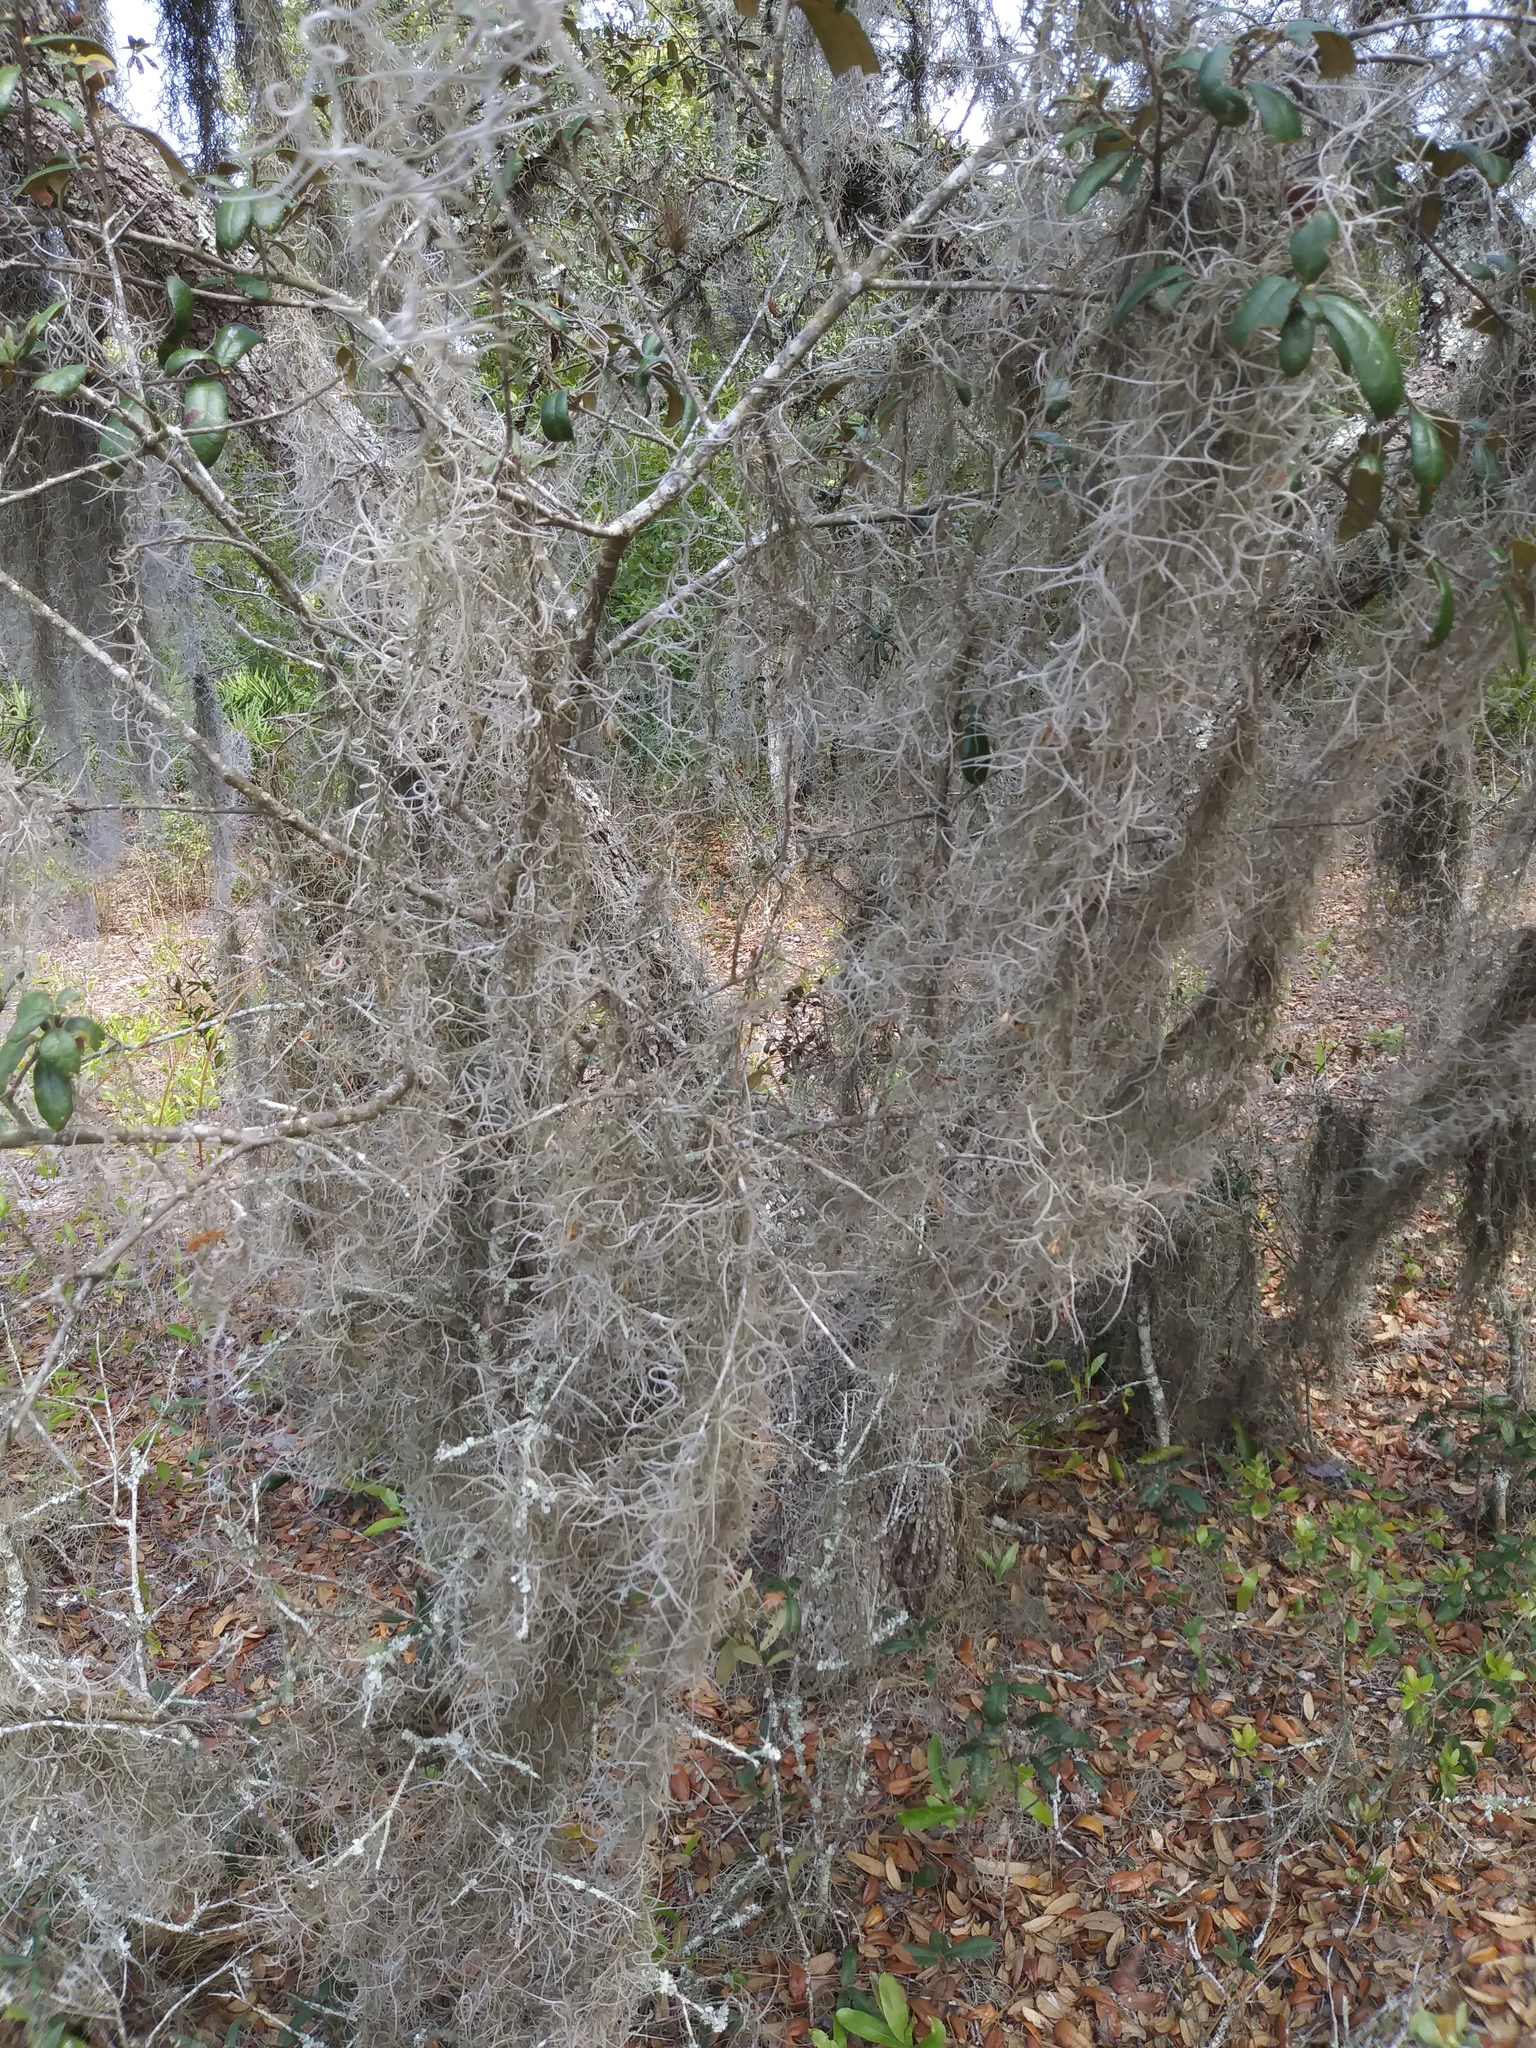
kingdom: Plantae
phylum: Tracheophyta
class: Liliopsida
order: Poales
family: Bromeliaceae
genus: Tillandsia
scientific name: Tillandsia usneoides
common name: Spanish moss
